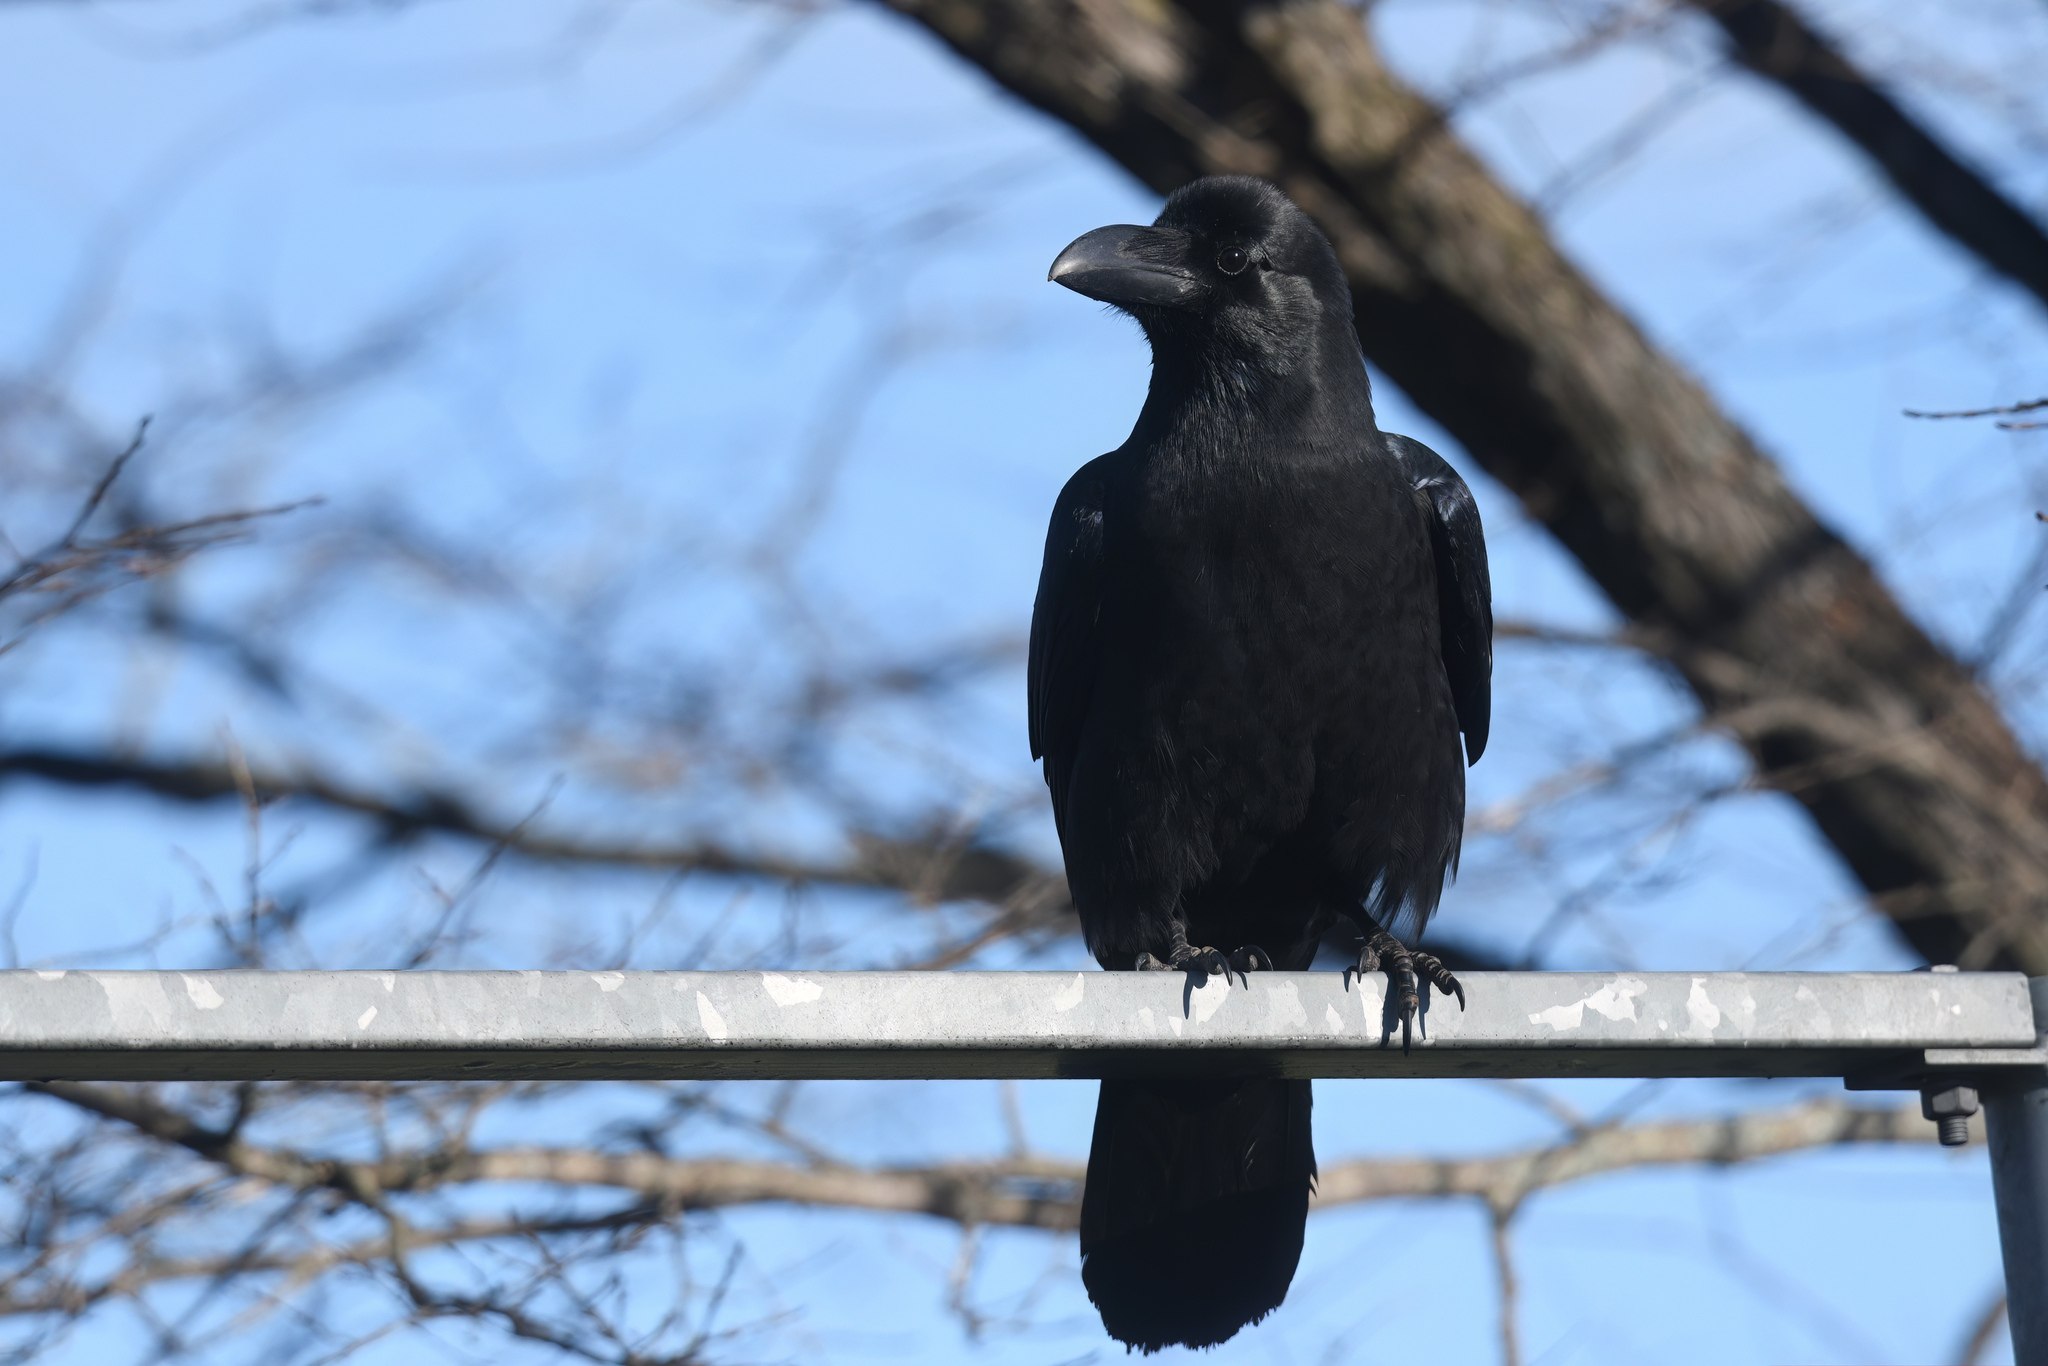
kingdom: Animalia
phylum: Chordata
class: Aves
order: Passeriformes
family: Corvidae
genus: Corvus
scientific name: Corvus macrorhynchos
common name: Large-billed crow
